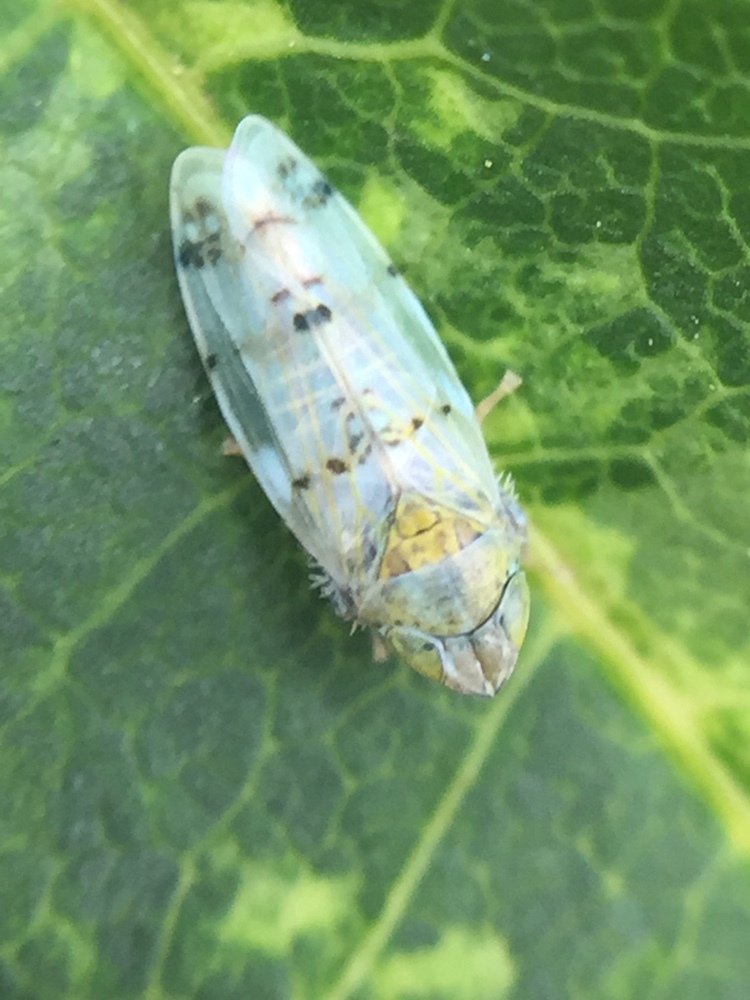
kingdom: Animalia
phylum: Arthropoda
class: Insecta
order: Hemiptera
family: Cicadellidae
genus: Japananus
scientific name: Japananus hyalinus
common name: The japanese maple leafhopper
